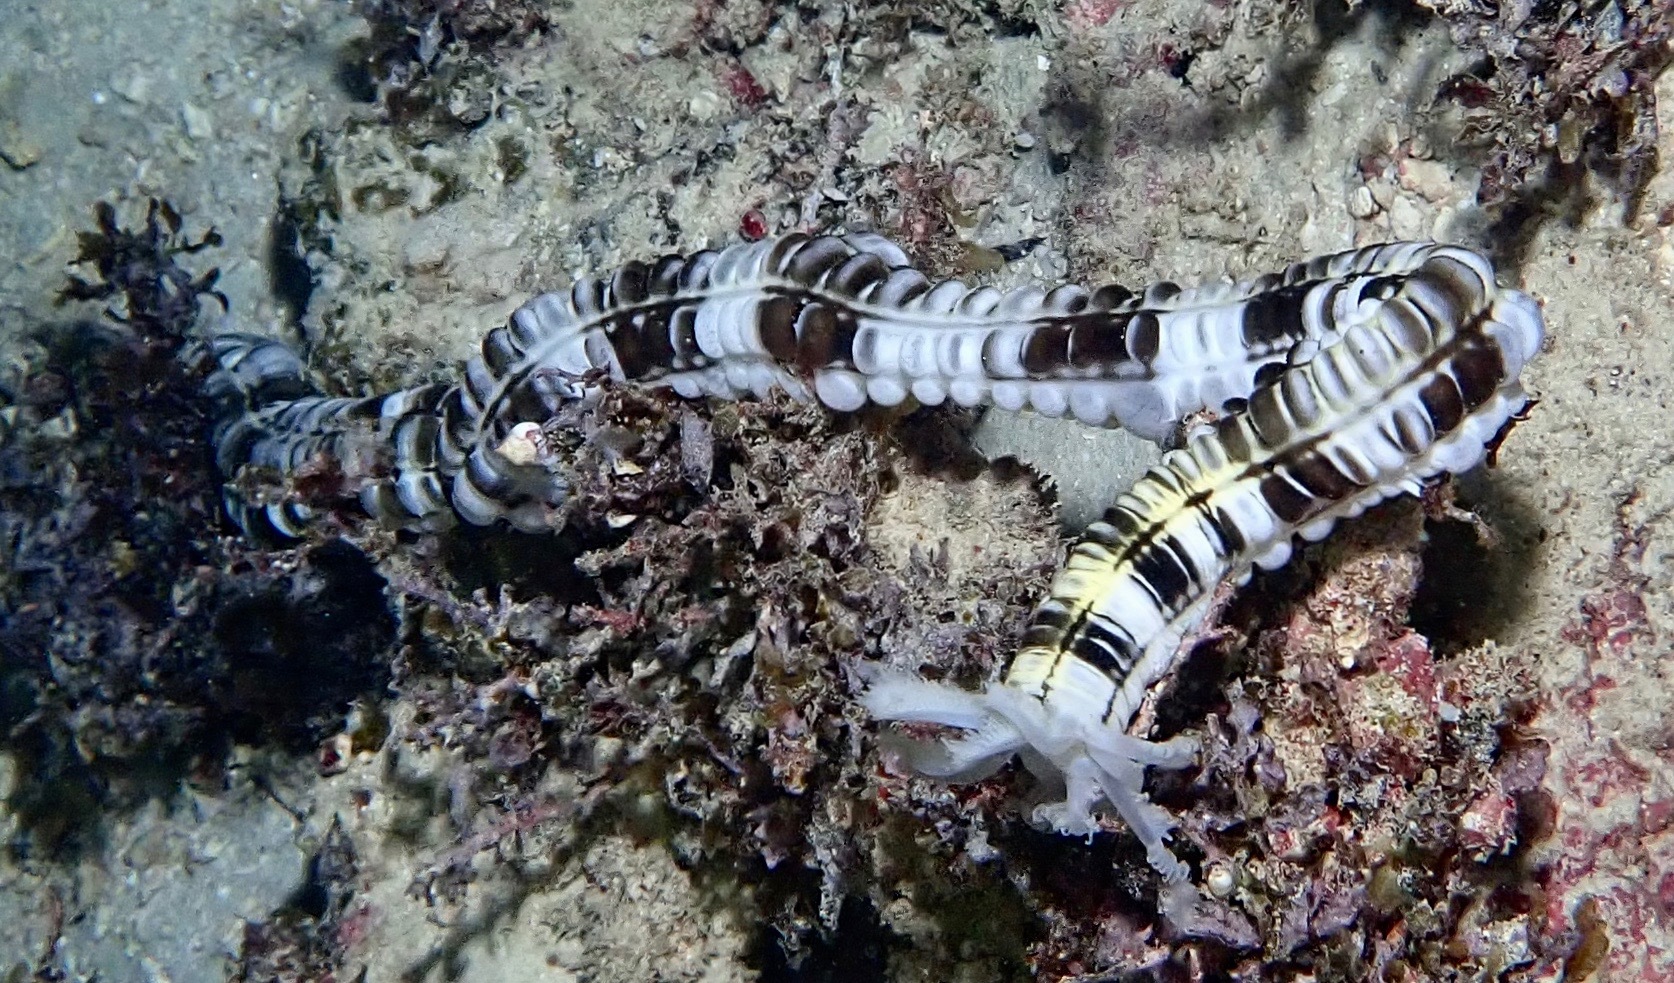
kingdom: Animalia
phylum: Echinodermata
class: Holothuroidea
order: Apodida
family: Synaptidae
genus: Euapta
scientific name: Euapta godeffroyi
